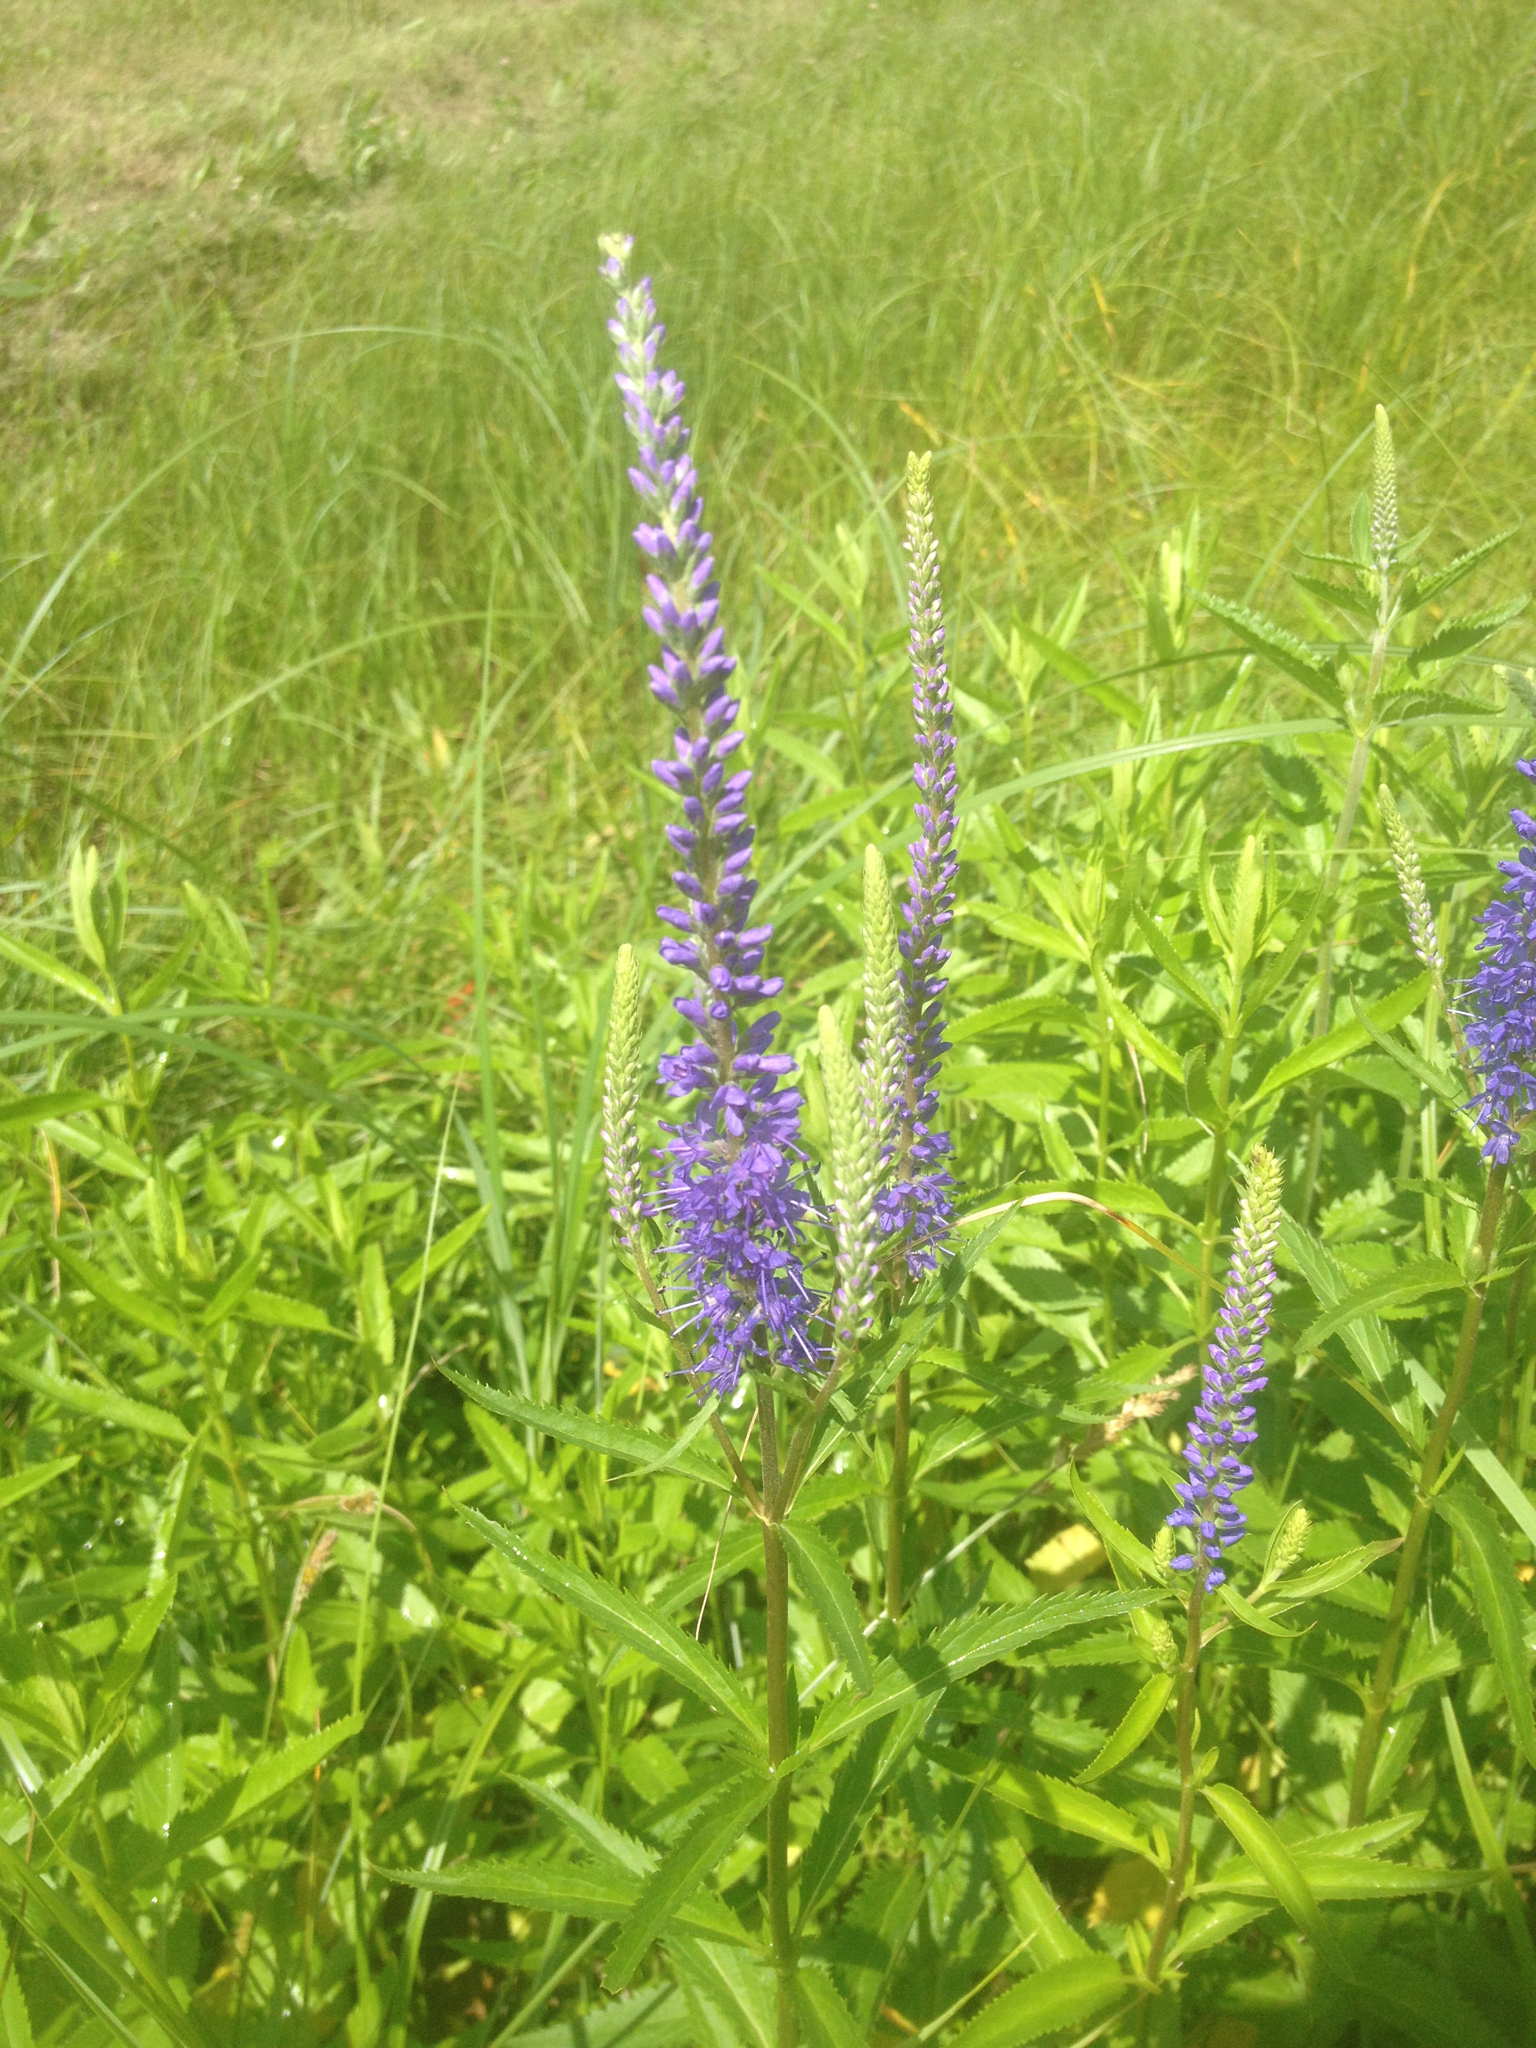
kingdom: Plantae
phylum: Tracheophyta
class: Magnoliopsida
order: Lamiales
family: Plantaginaceae
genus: Veronica
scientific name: Veronica longifolia
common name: Garden speedwell
